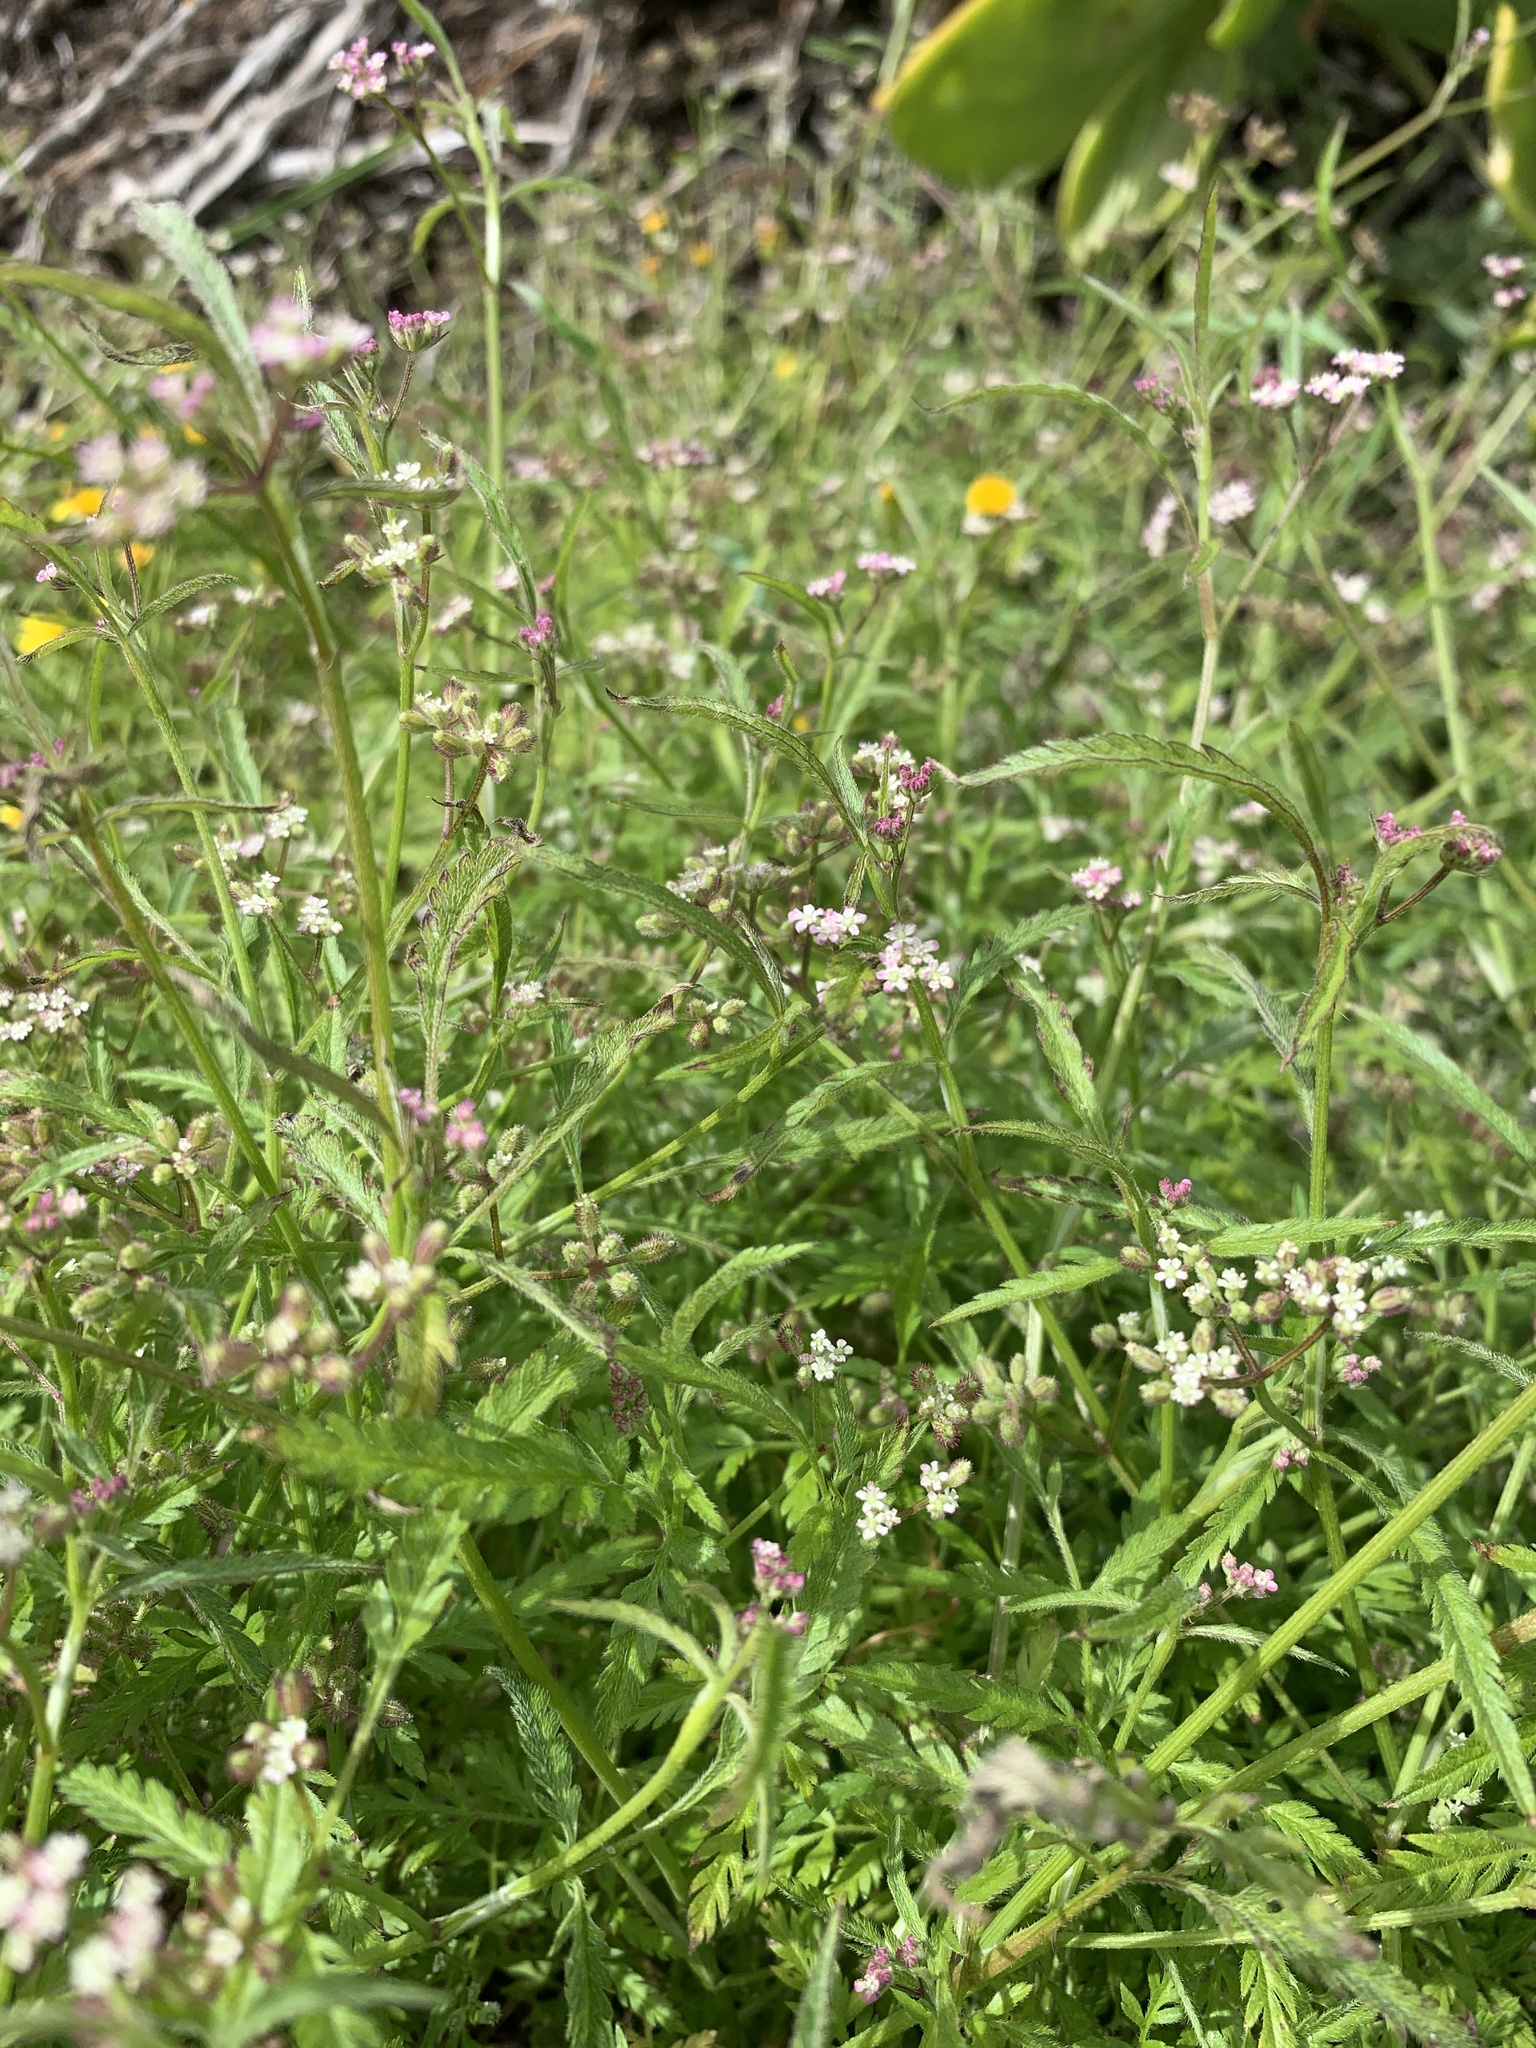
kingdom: Plantae
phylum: Tracheophyta
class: Magnoliopsida
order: Apiales
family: Apiaceae
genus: Torilis
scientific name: Torilis africana
